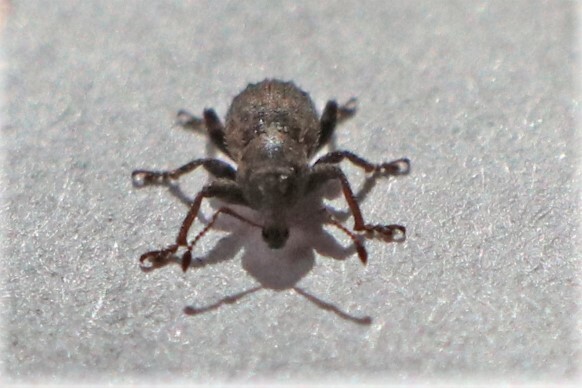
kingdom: Animalia
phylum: Arthropoda
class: Insecta
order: Coleoptera
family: Curculionidae
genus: Chalepistes
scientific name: Chalepistes aequalis
